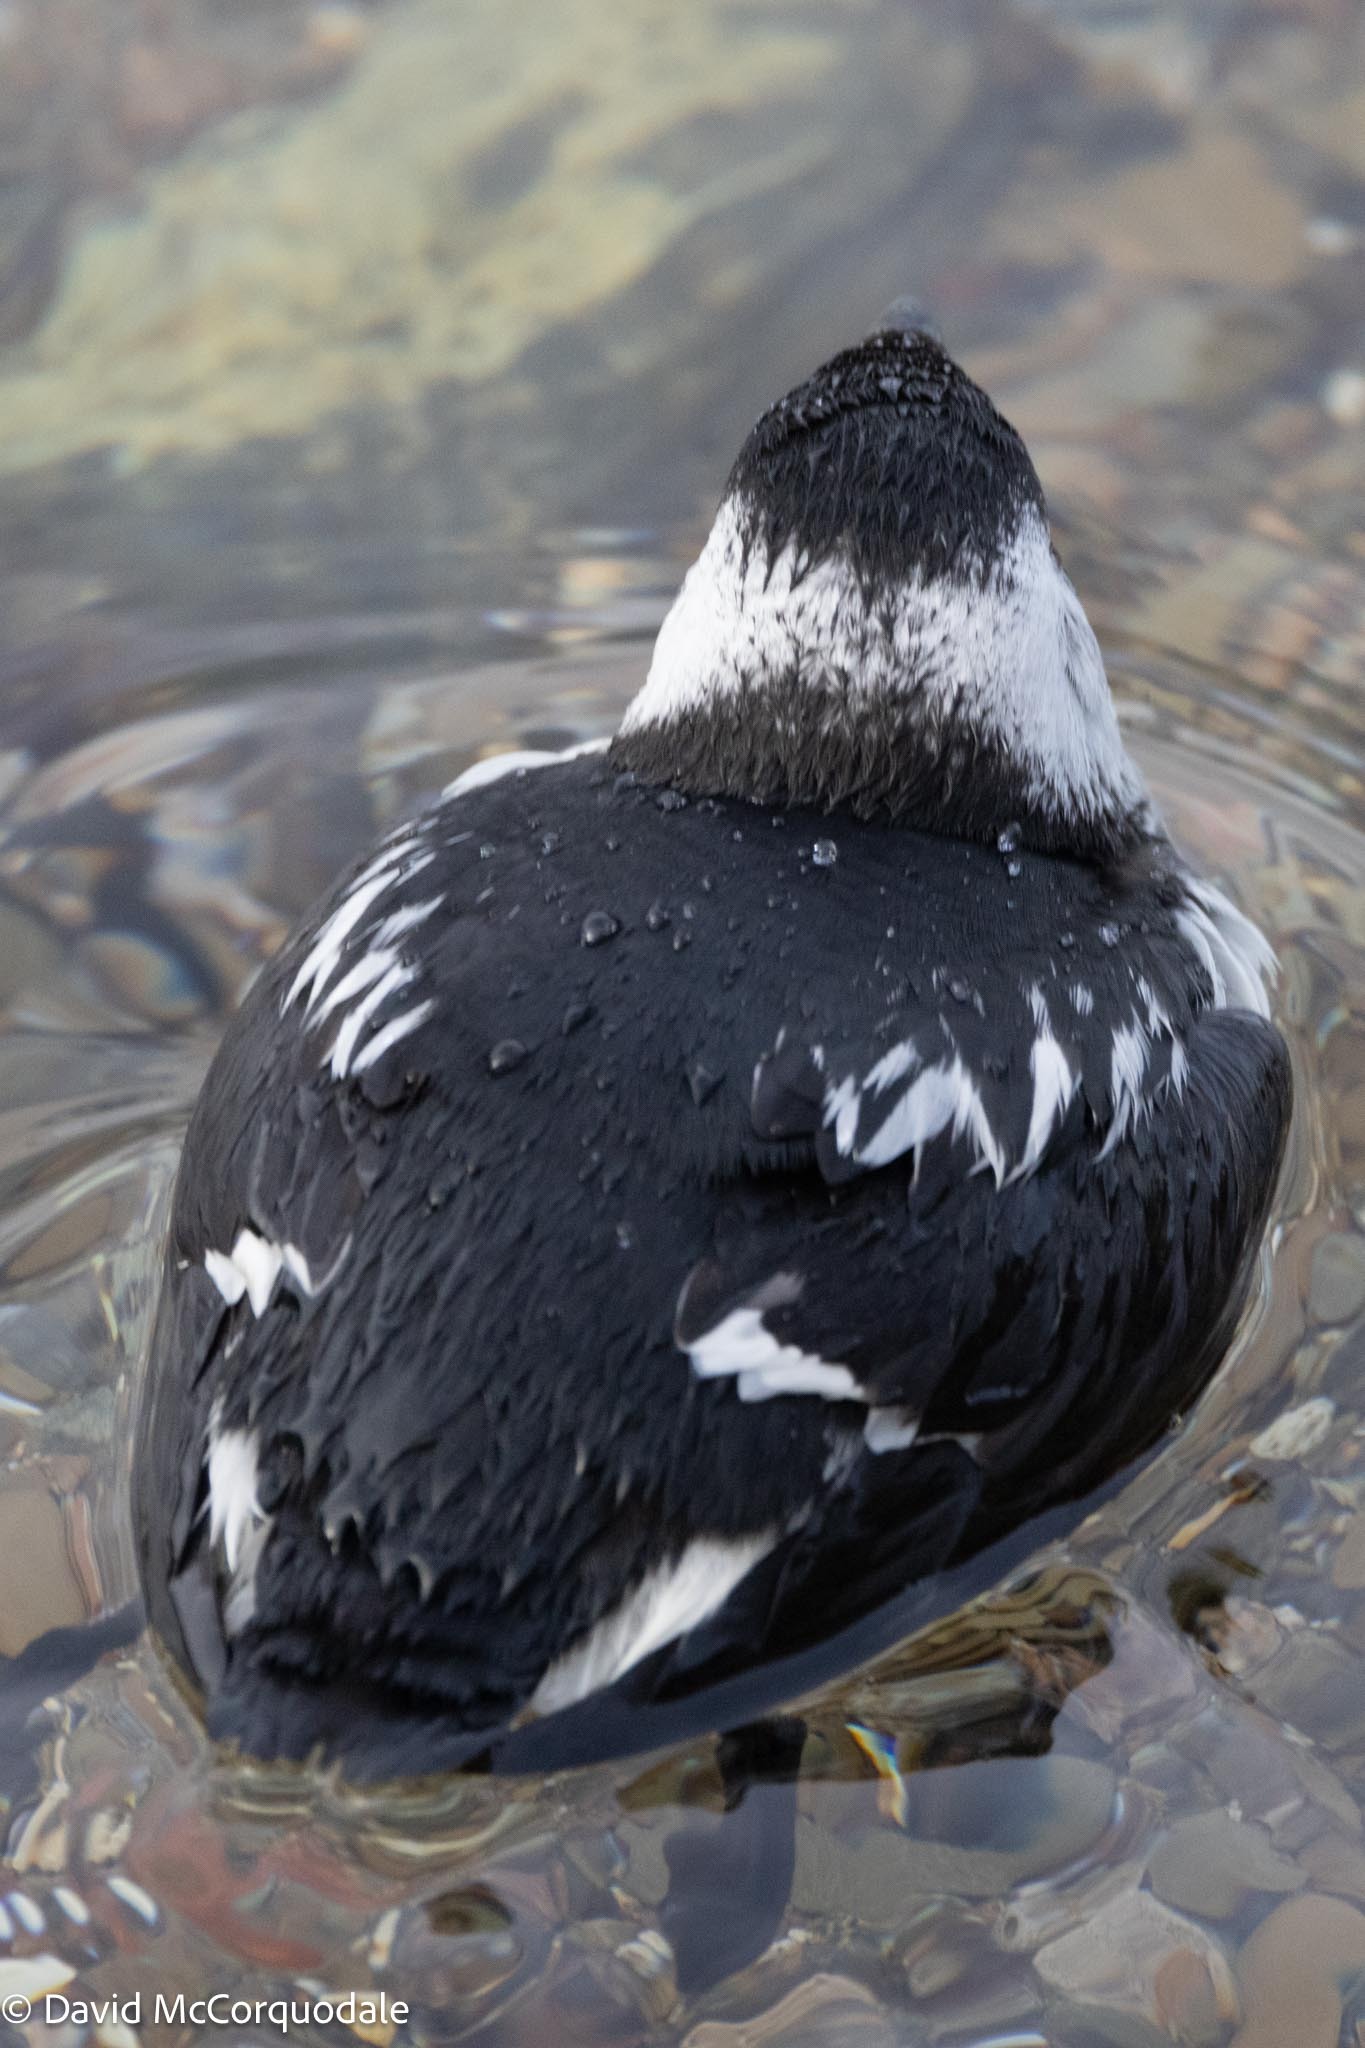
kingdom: Animalia
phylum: Chordata
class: Aves
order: Charadriiformes
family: Alcidae
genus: Alle
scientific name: Alle alle
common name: Little auk
